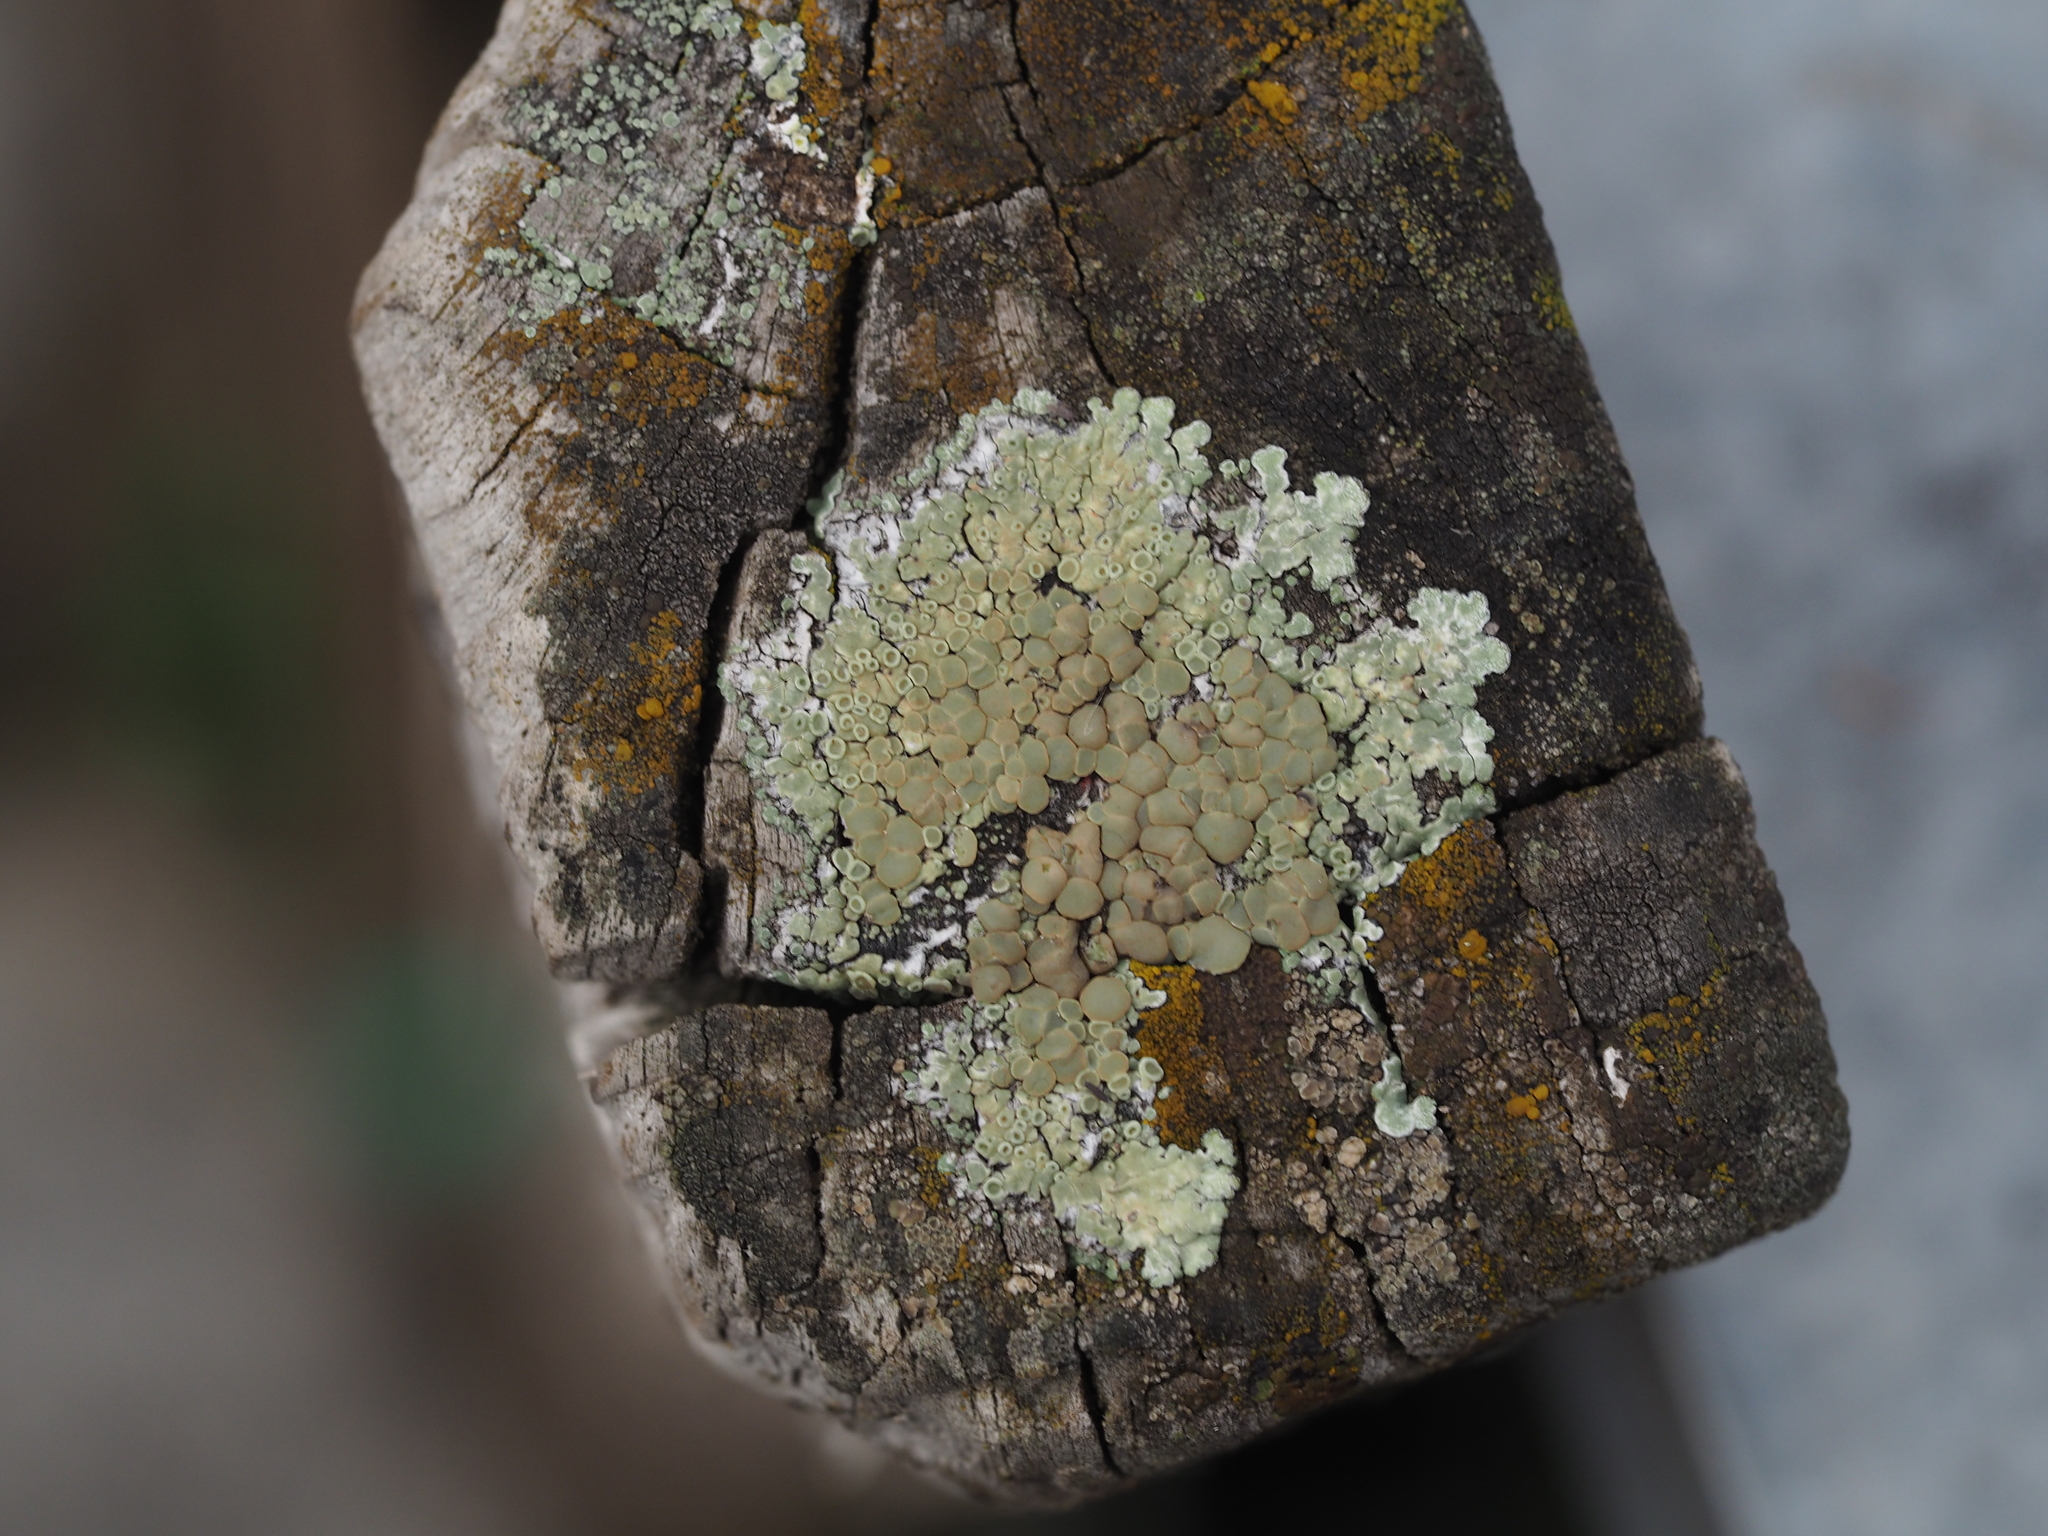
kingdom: Fungi
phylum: Ascomycota
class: Lecanoromycetes
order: Lecanorales
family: Lecanoraceae
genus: Protoparmeliopsis
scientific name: Protoparmeliopsis muralis
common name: Stonewall rim lichen
